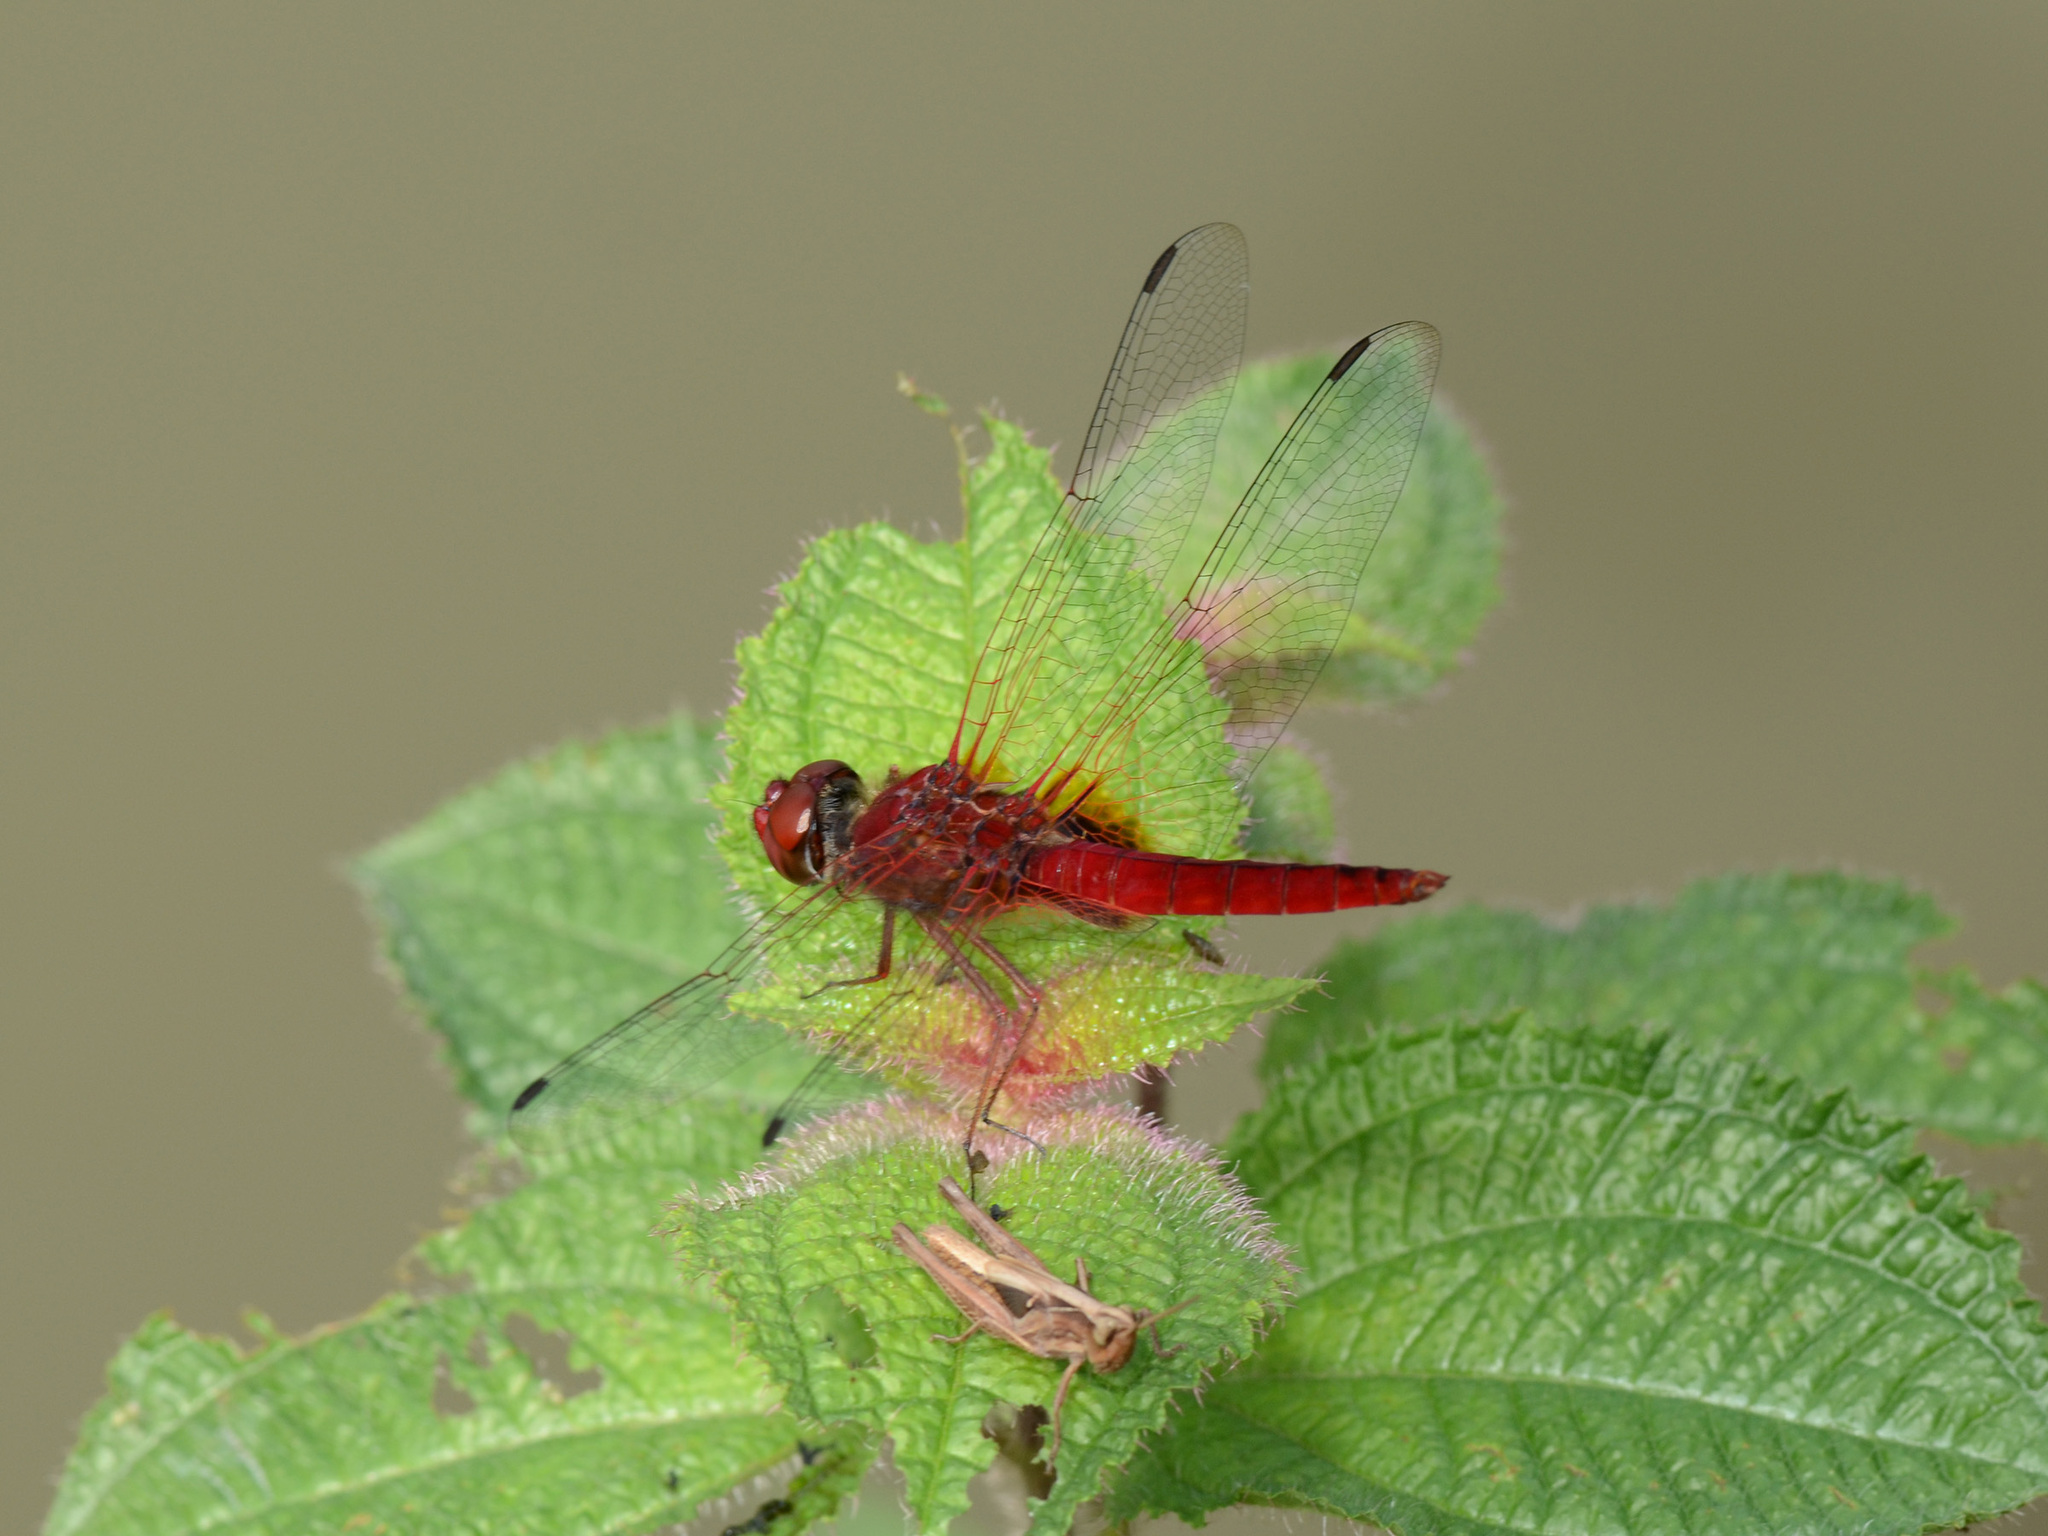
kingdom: Animalia
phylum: Arthropoda
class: Insecta
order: Odonata
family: Libellulidae
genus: Urothemis
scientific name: Urothemis signata
